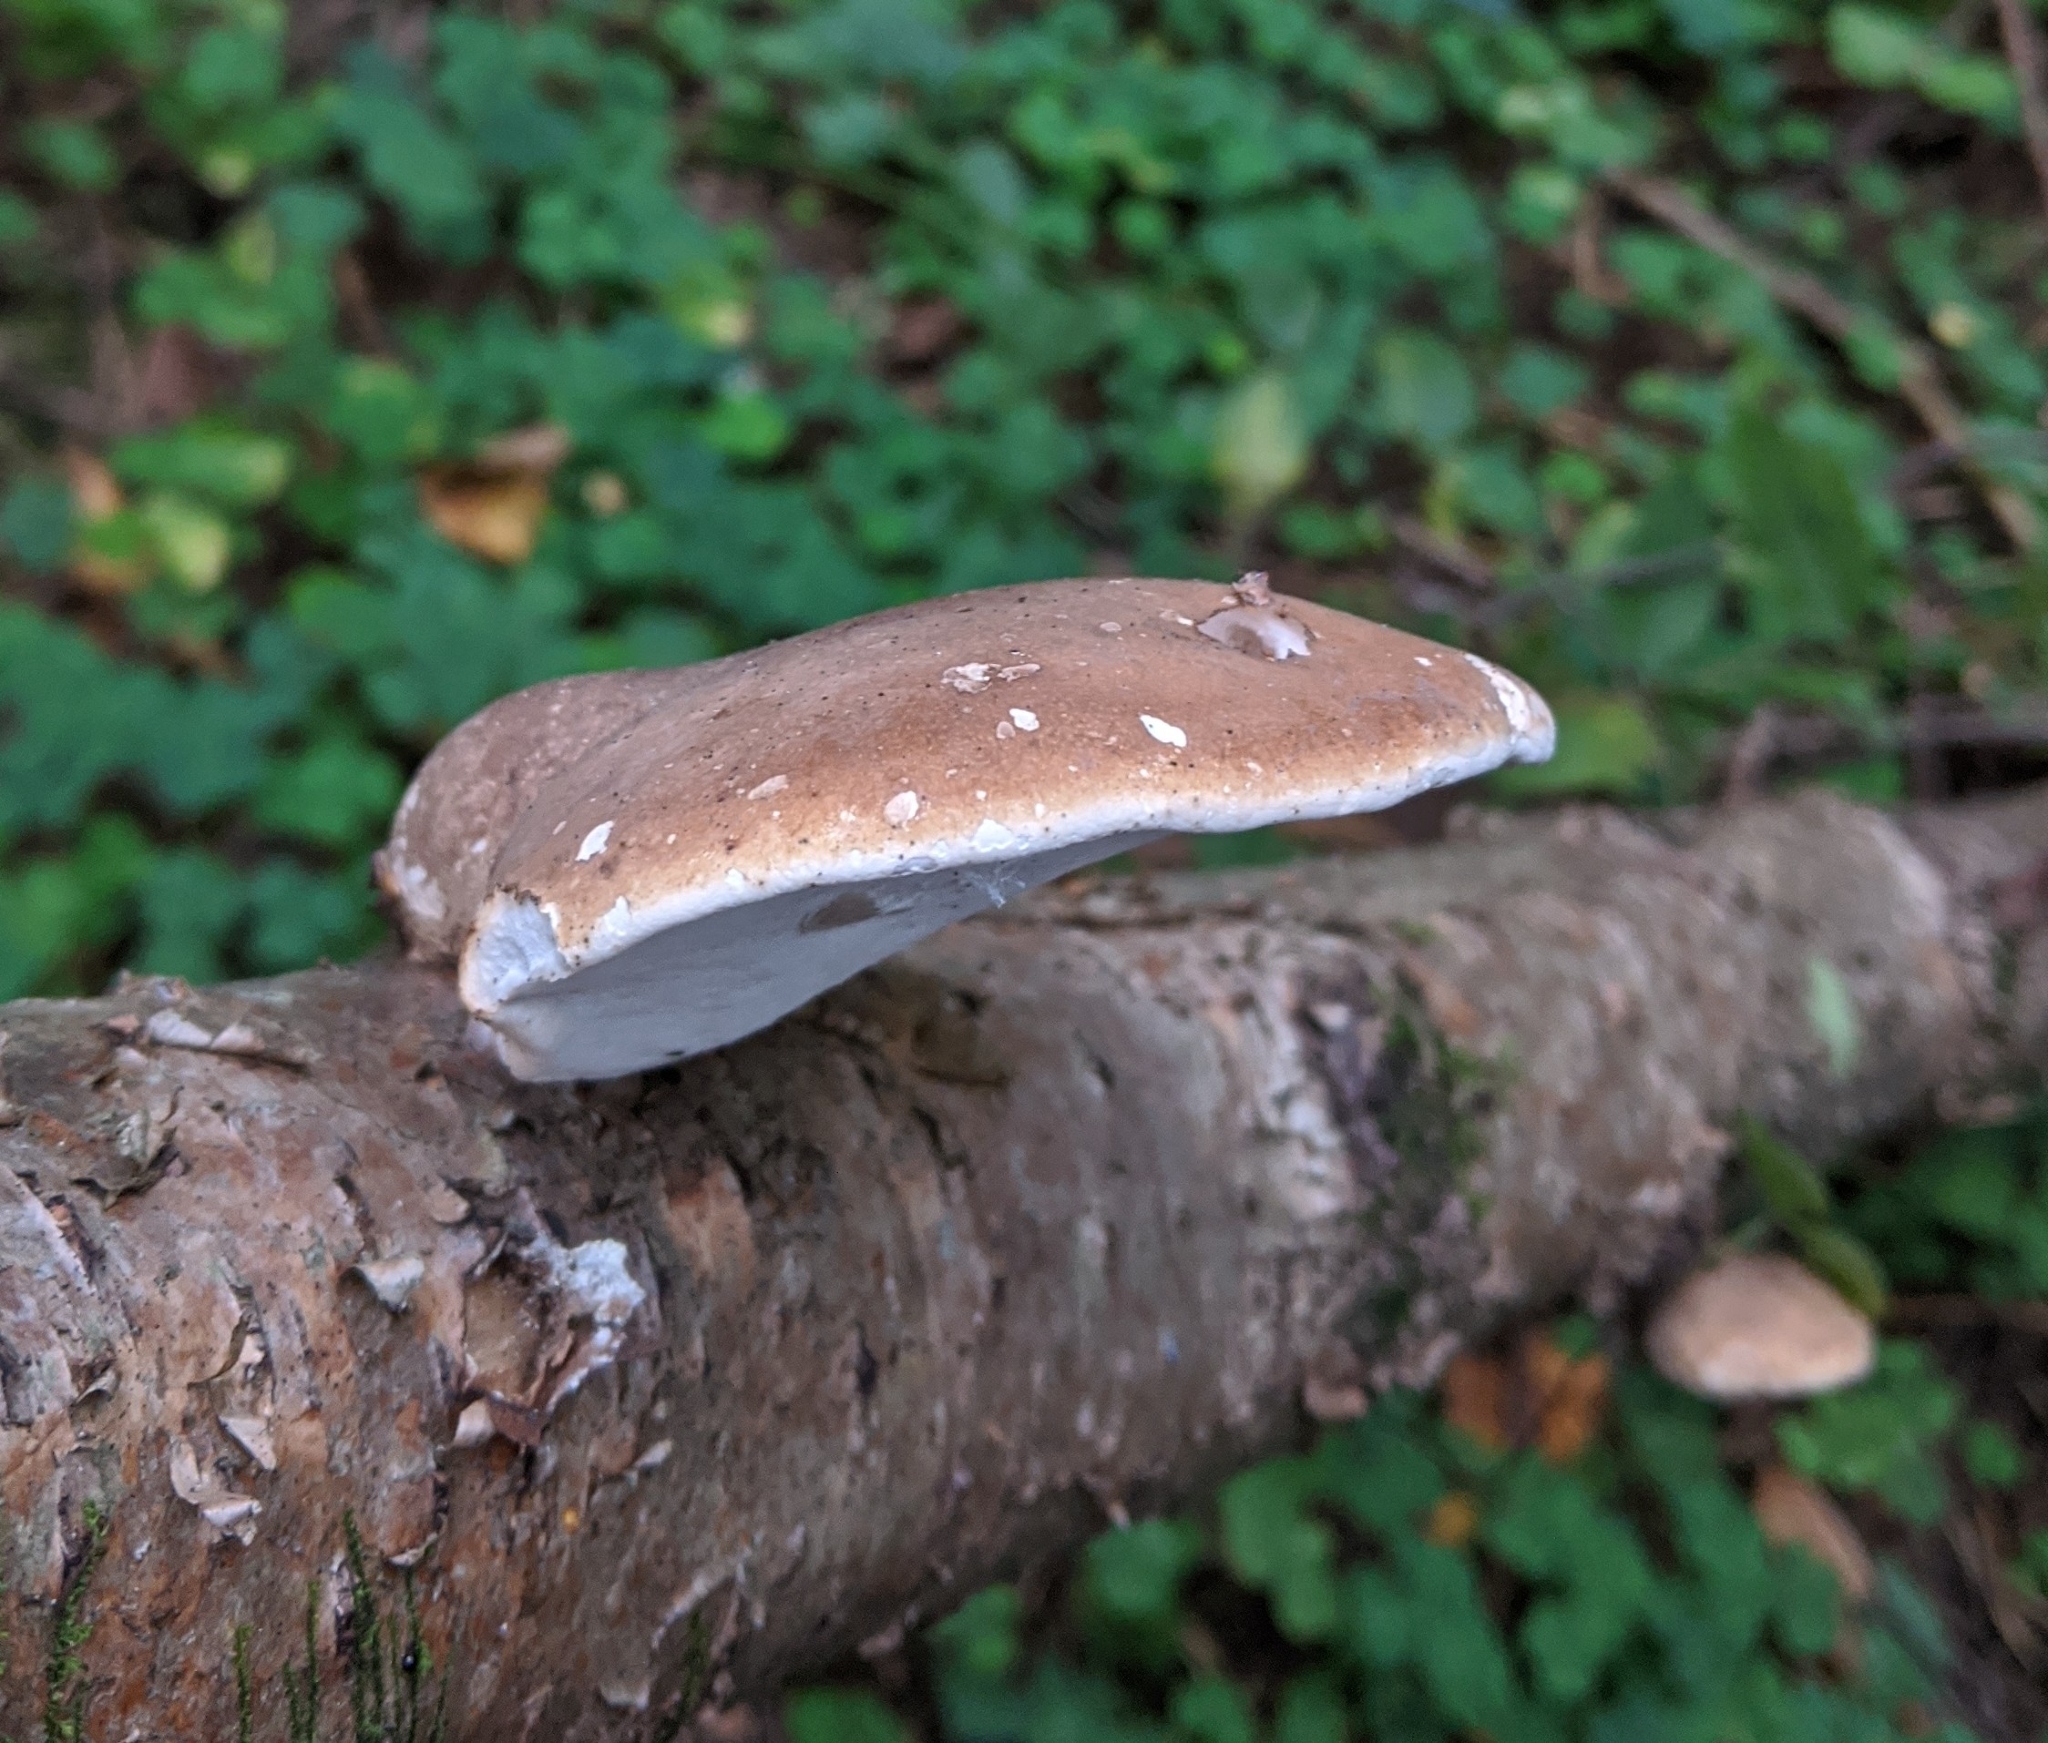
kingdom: Fungi
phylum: Basidiomycota
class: Agaricomycetes
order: Polyporales
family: Fomitopsidaceae
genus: Fomitopsis
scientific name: Fomitopsis betulina
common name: Birch polypore
